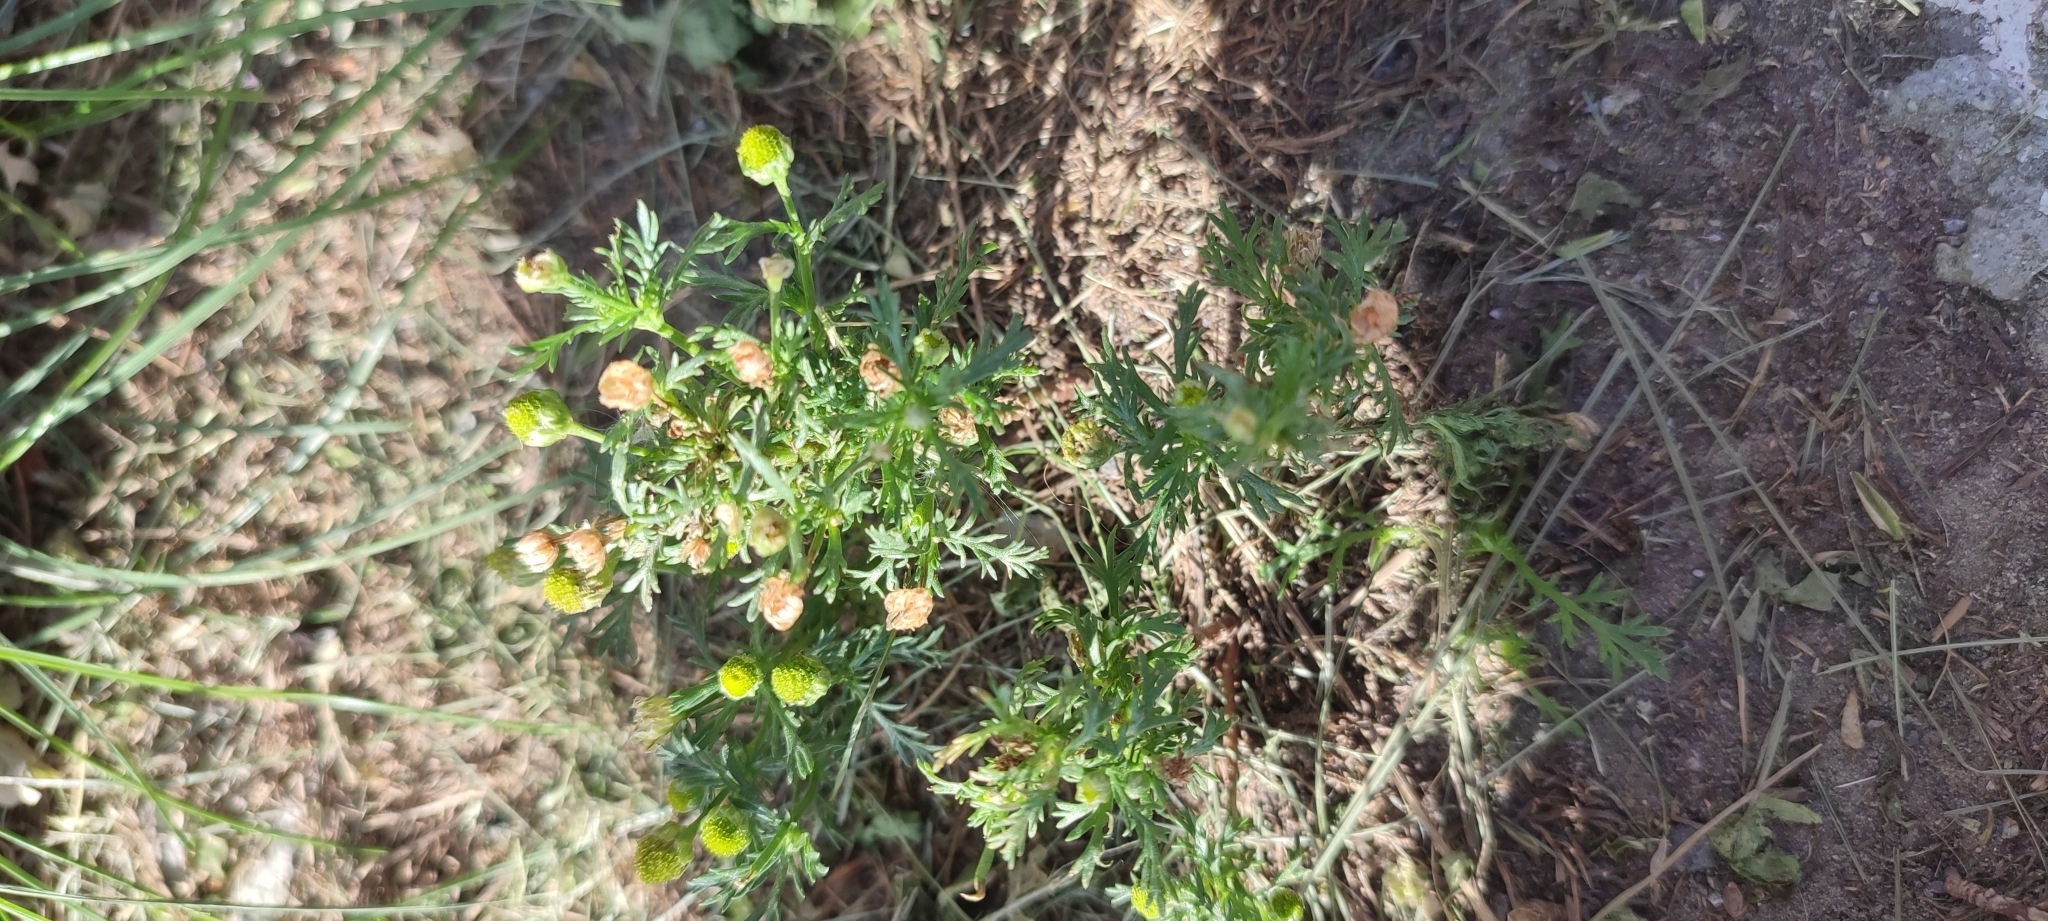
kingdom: Plantae
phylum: Tracheophyta
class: Magnoliopsida
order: Asterales
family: Asteraceae
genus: Matricaria
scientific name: Matricaria discoidea
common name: Disc mayweed
